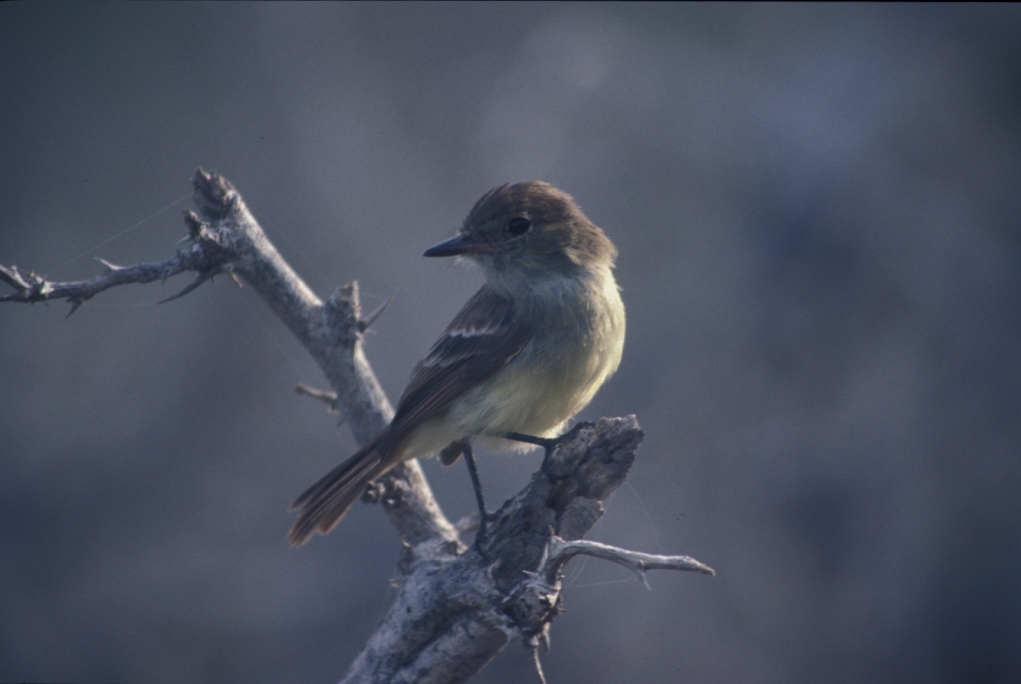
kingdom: Animalia
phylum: Chordata
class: Aves
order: Passeriformes
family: Tyrannidae
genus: Myiarchus
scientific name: Myiarchus magnirostris
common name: Galapagos flycatcher
